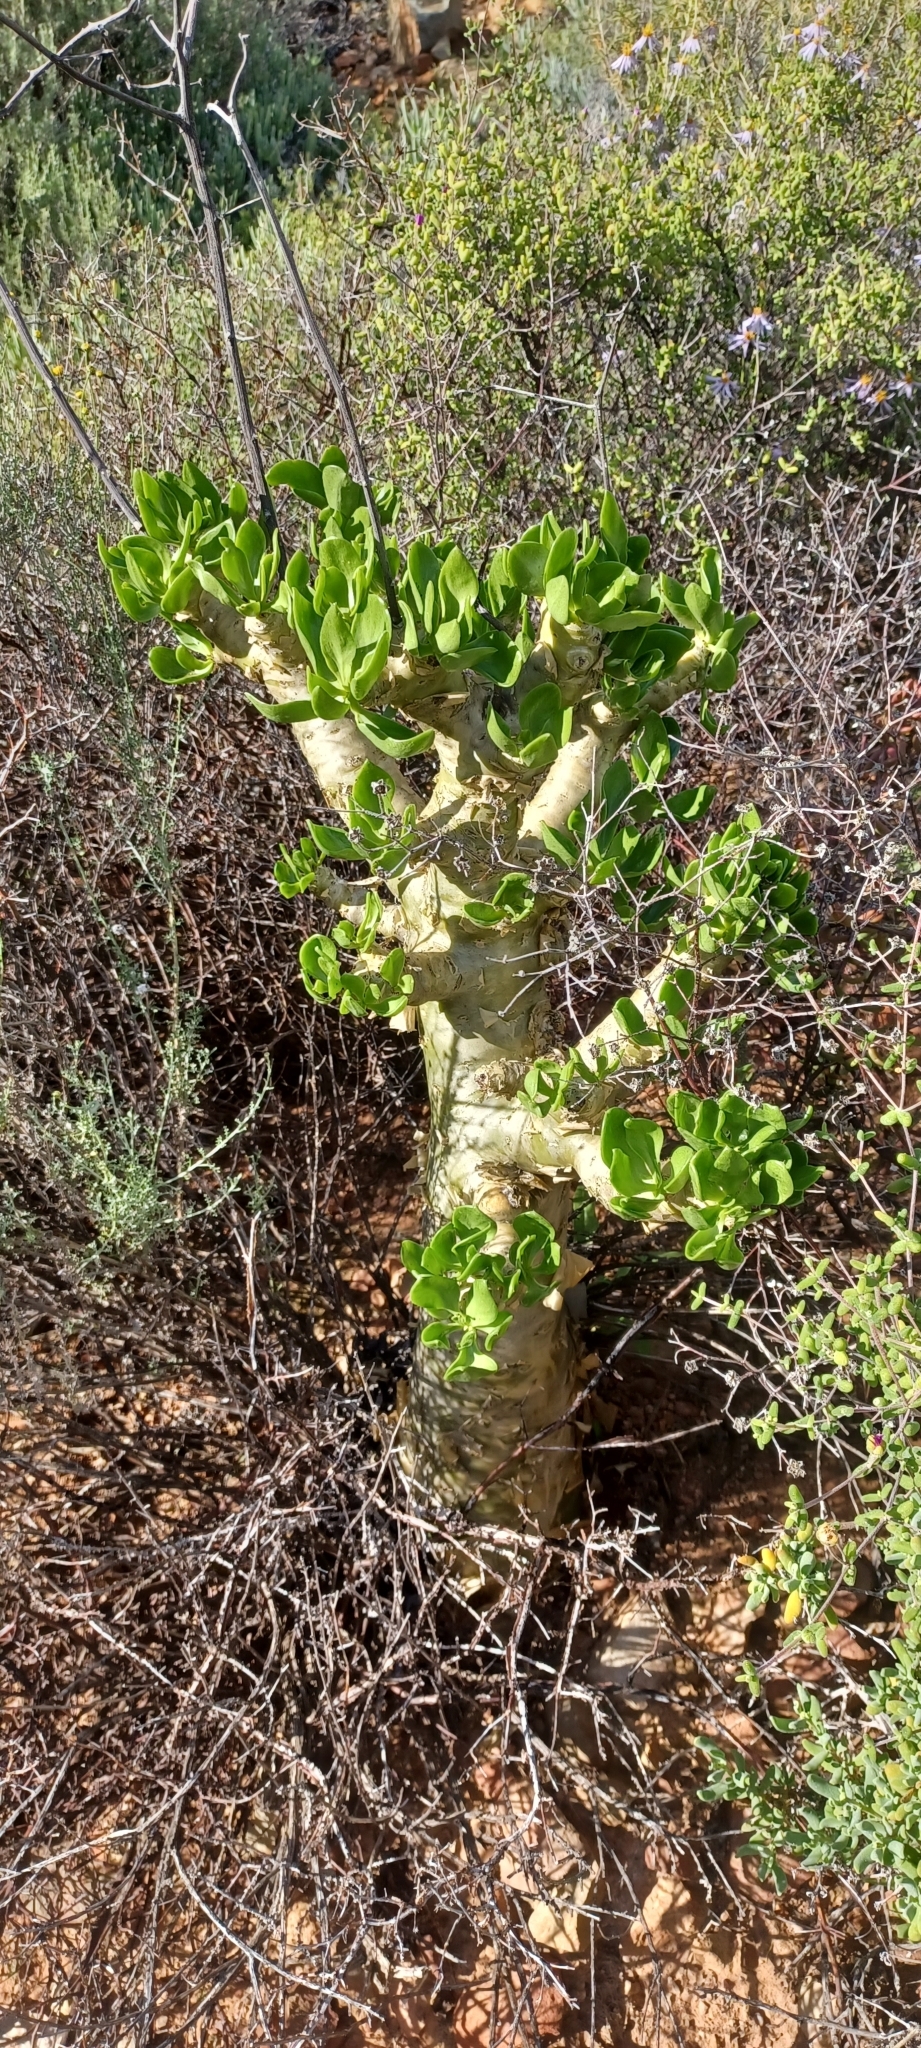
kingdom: Plantae
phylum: Tracheophyta
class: Magnoliopsida
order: Saxifragales
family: Crassulaceae
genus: Tylecodon
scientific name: Tylecodon paniculatus
